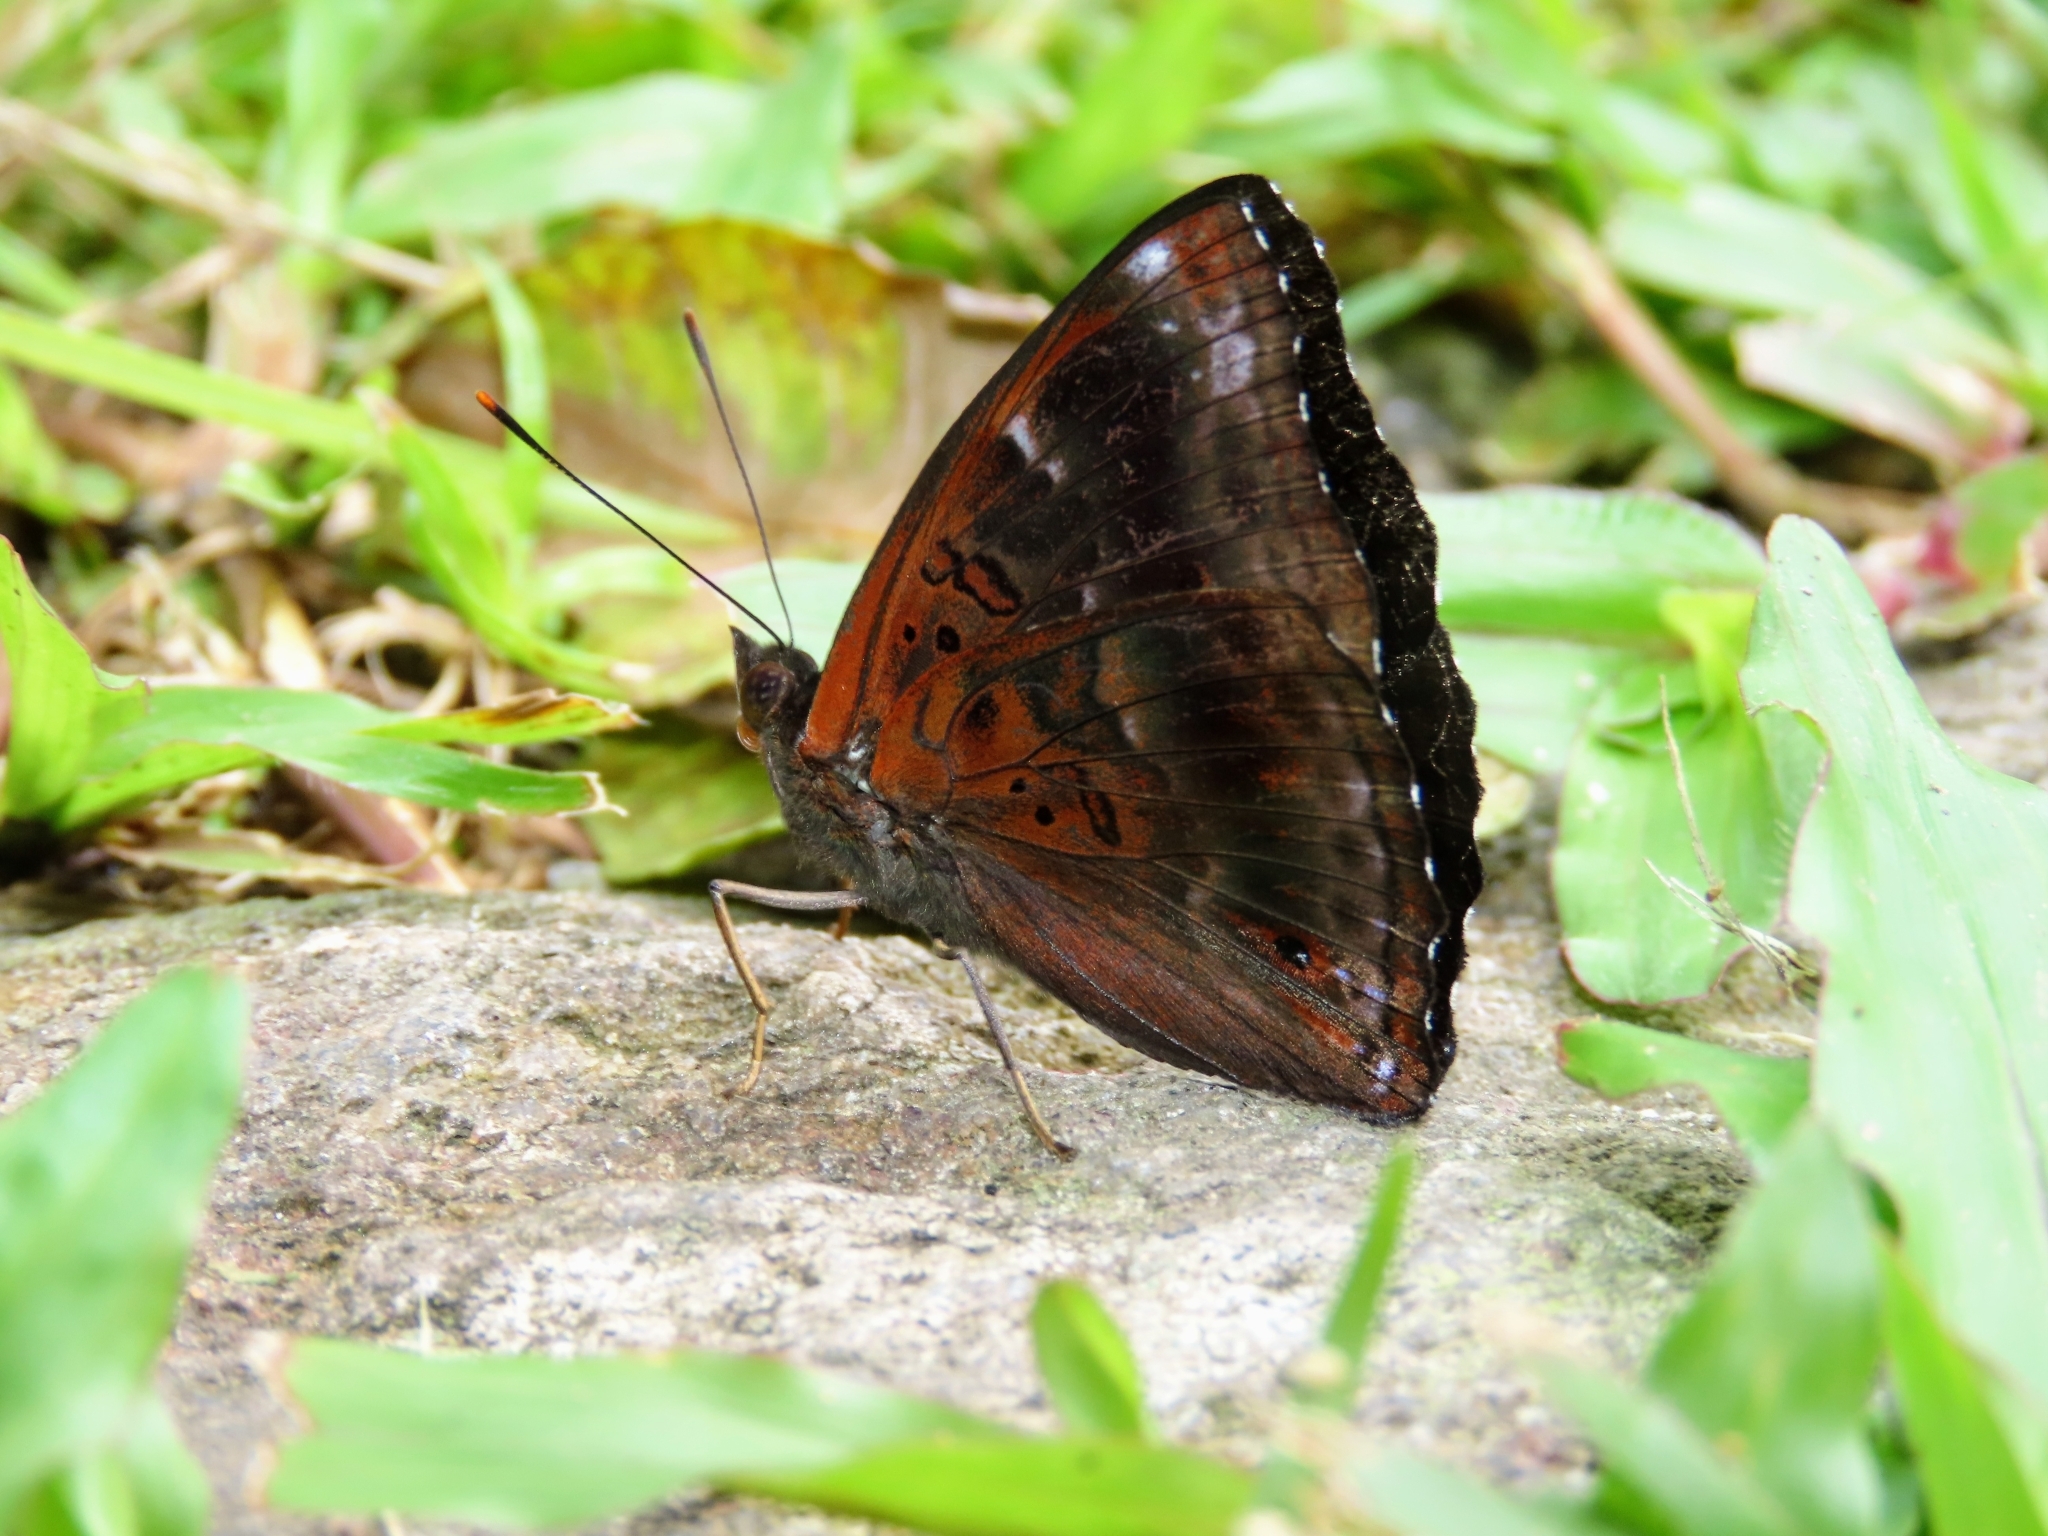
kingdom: Animalia
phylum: Arthropoda
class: Insecta
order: Lepidoptera
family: Nymphalidae
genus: Apatura
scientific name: Apatura Rohana spec
